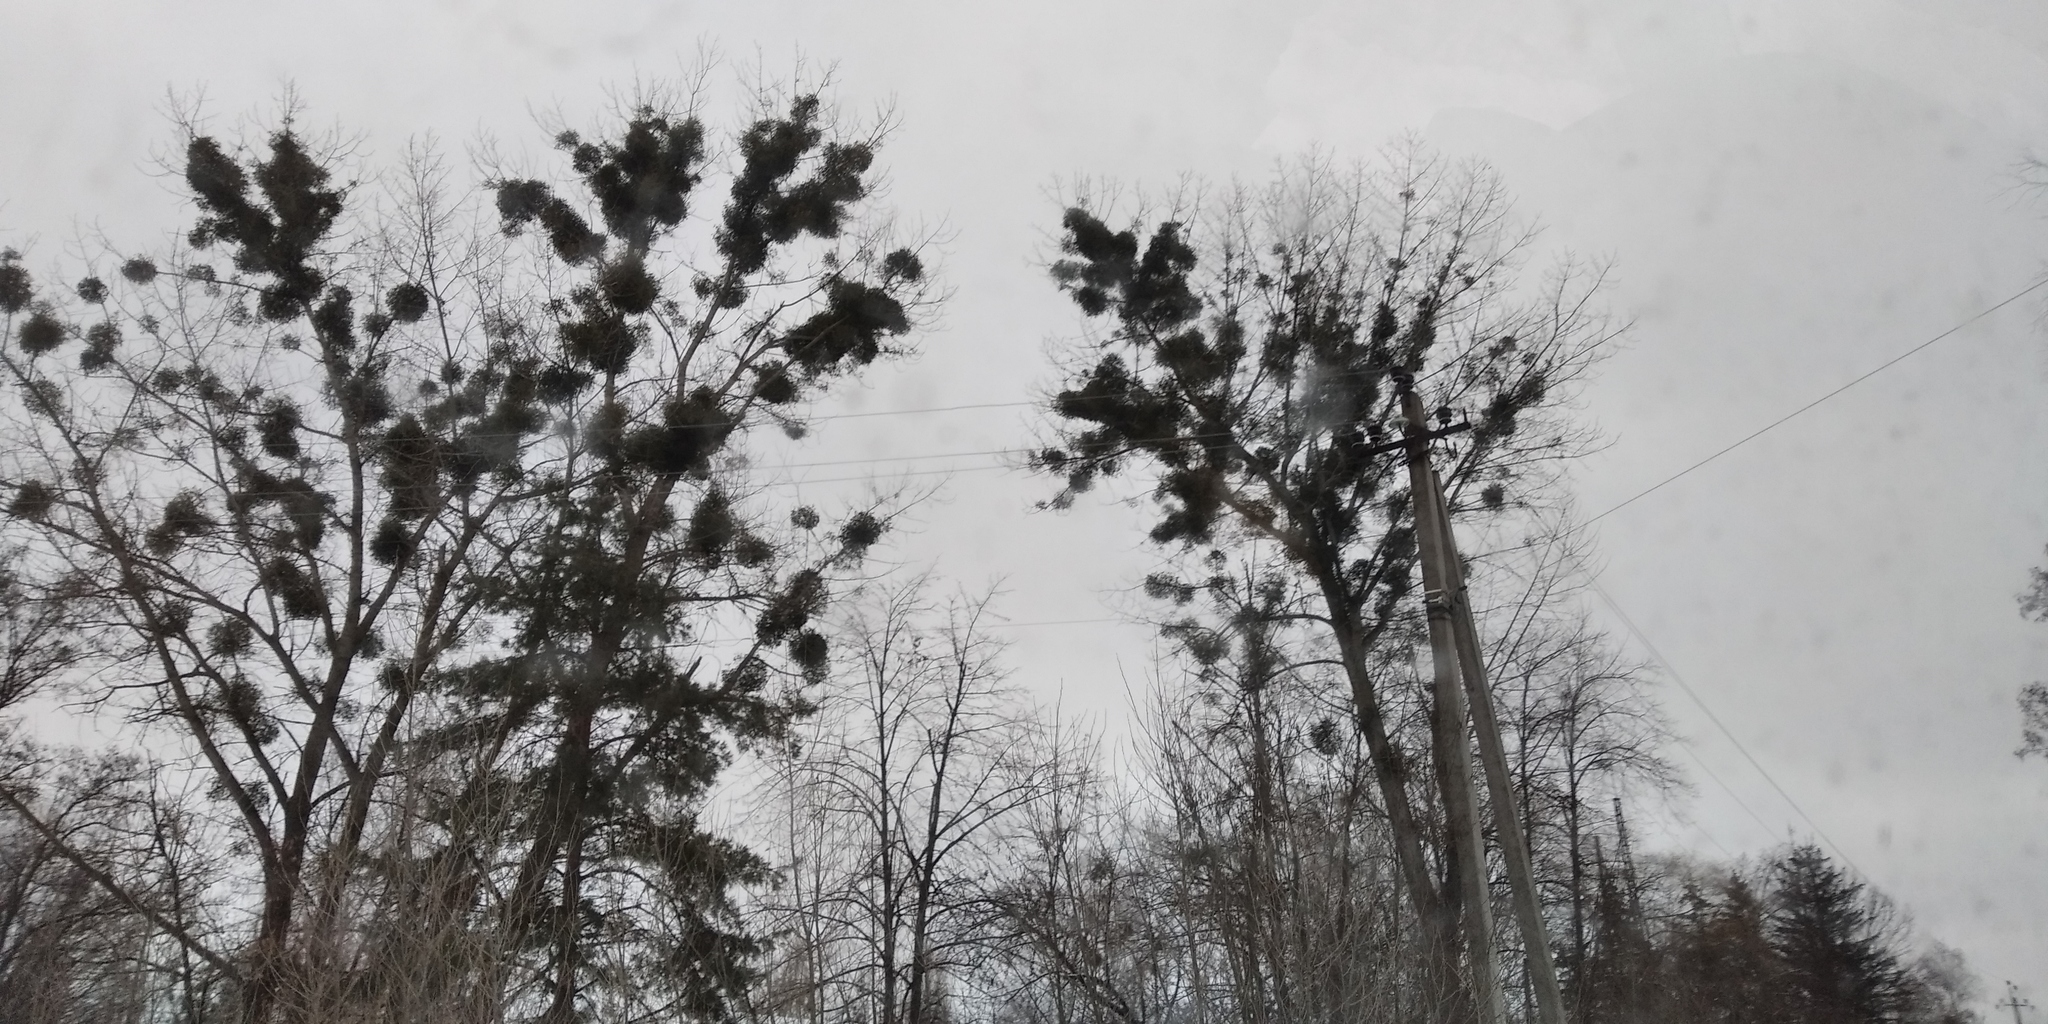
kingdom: Plantae
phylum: Tracheophyta
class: Magnoliopsida
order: Santalales
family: Viscaceae
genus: Viscum
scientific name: Viscum album
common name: Mistletoe
